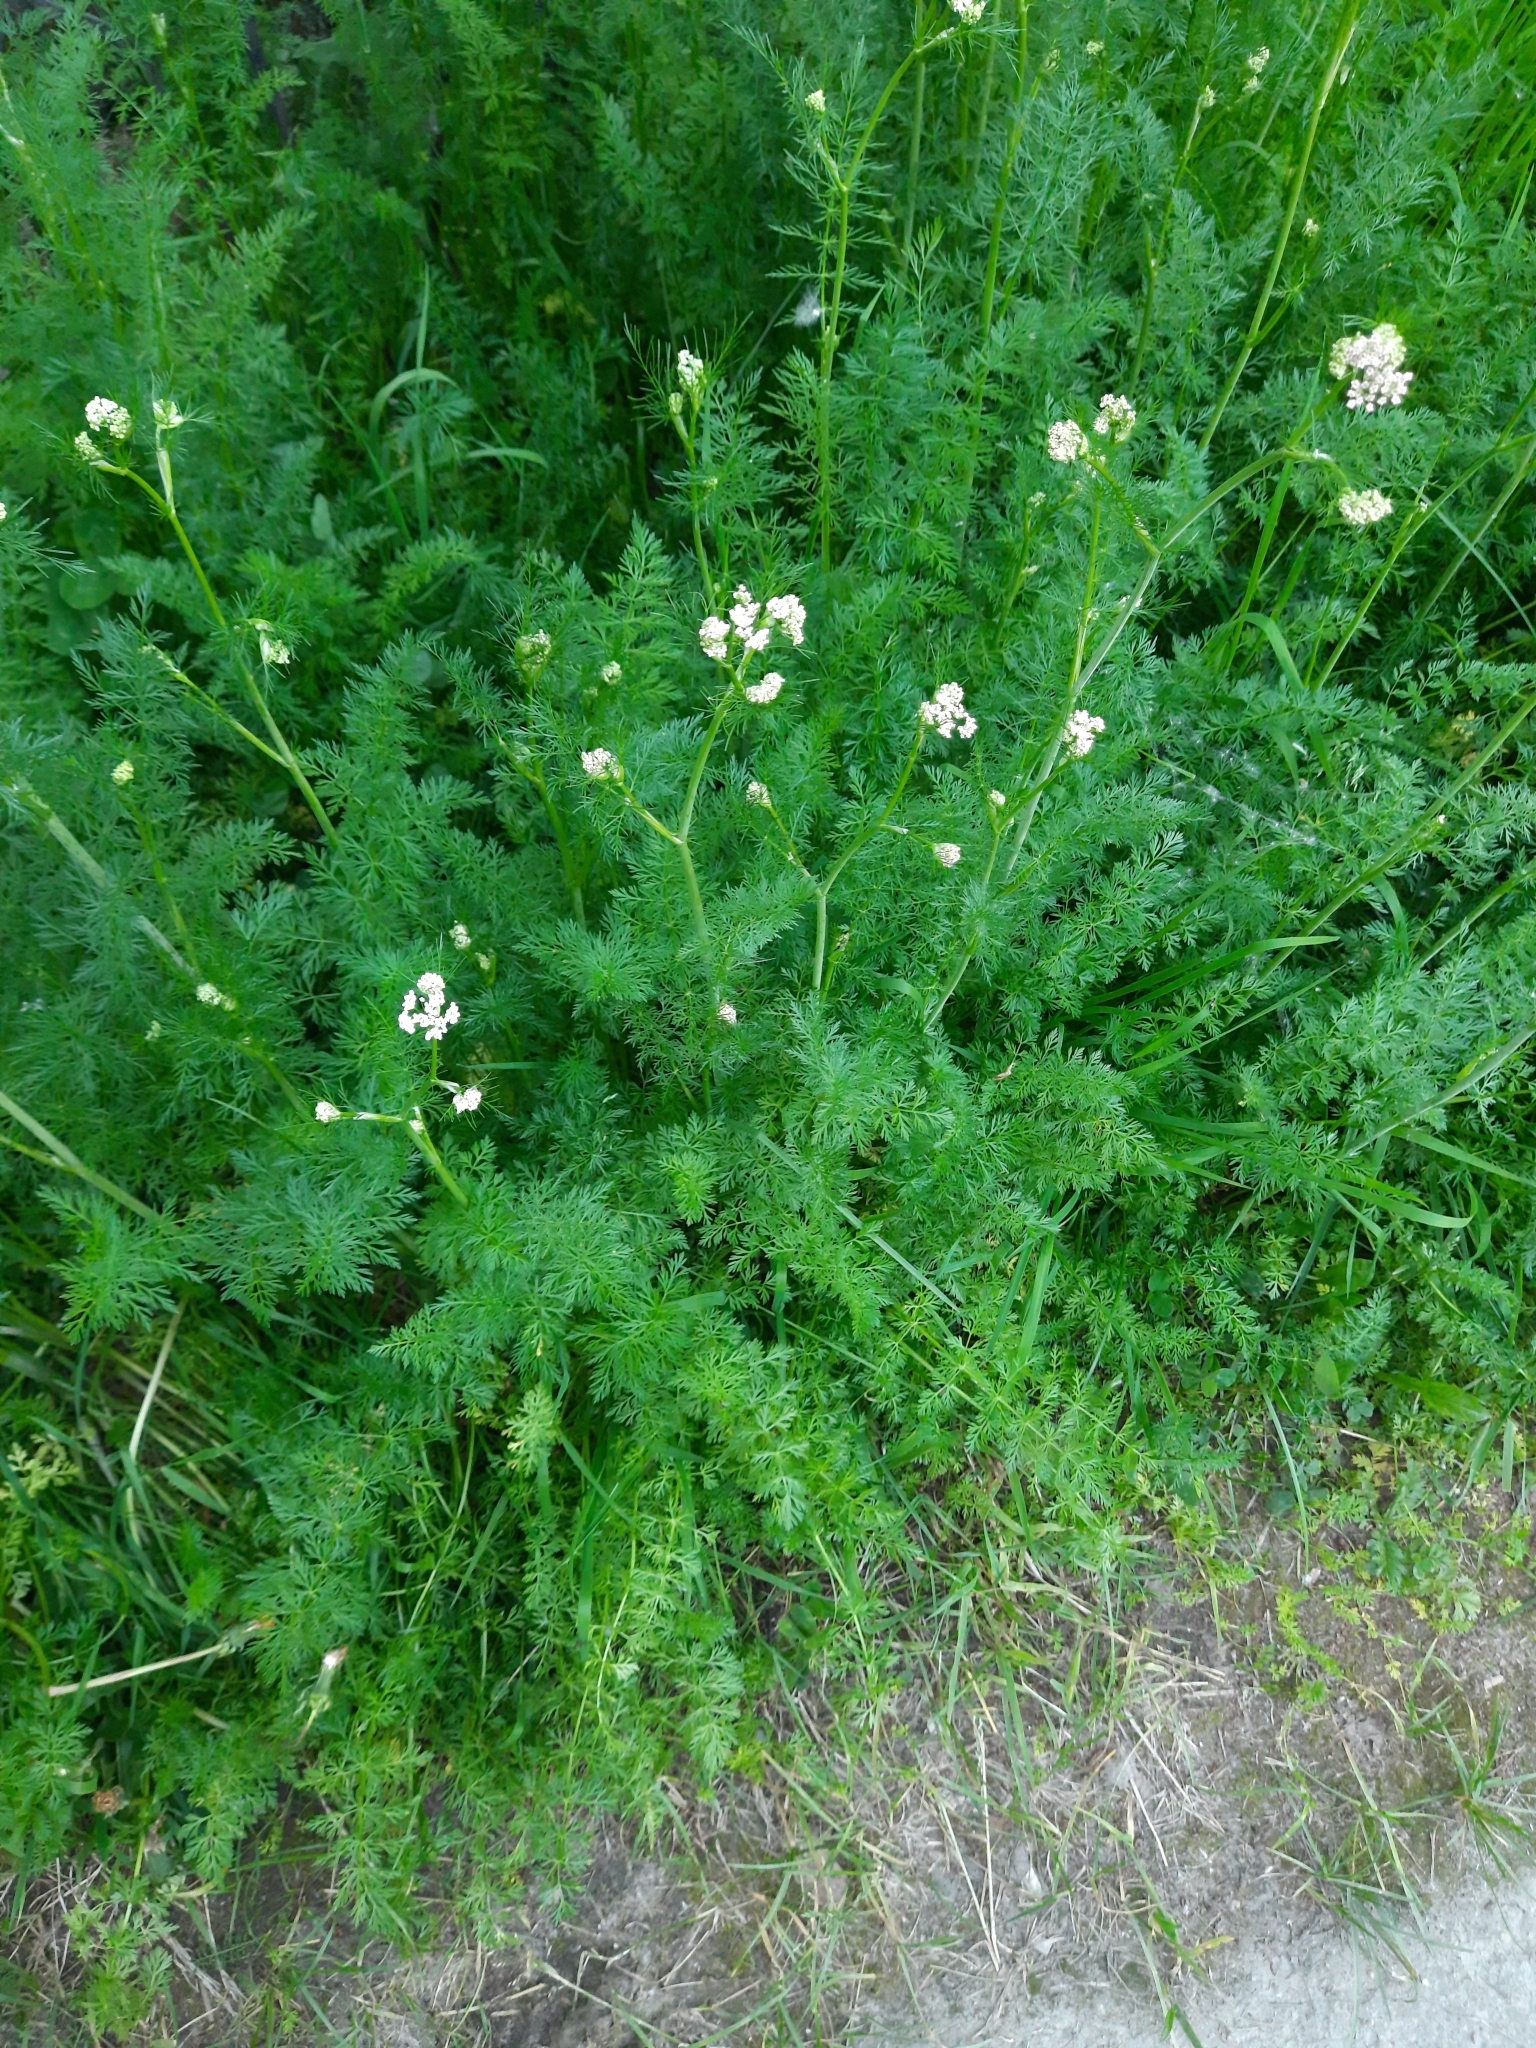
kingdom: Plantae
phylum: Tracheophyta
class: Magnoliopsida
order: Apiales
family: Apiaceae
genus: Carum
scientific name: Carum carvi
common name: Caraway
